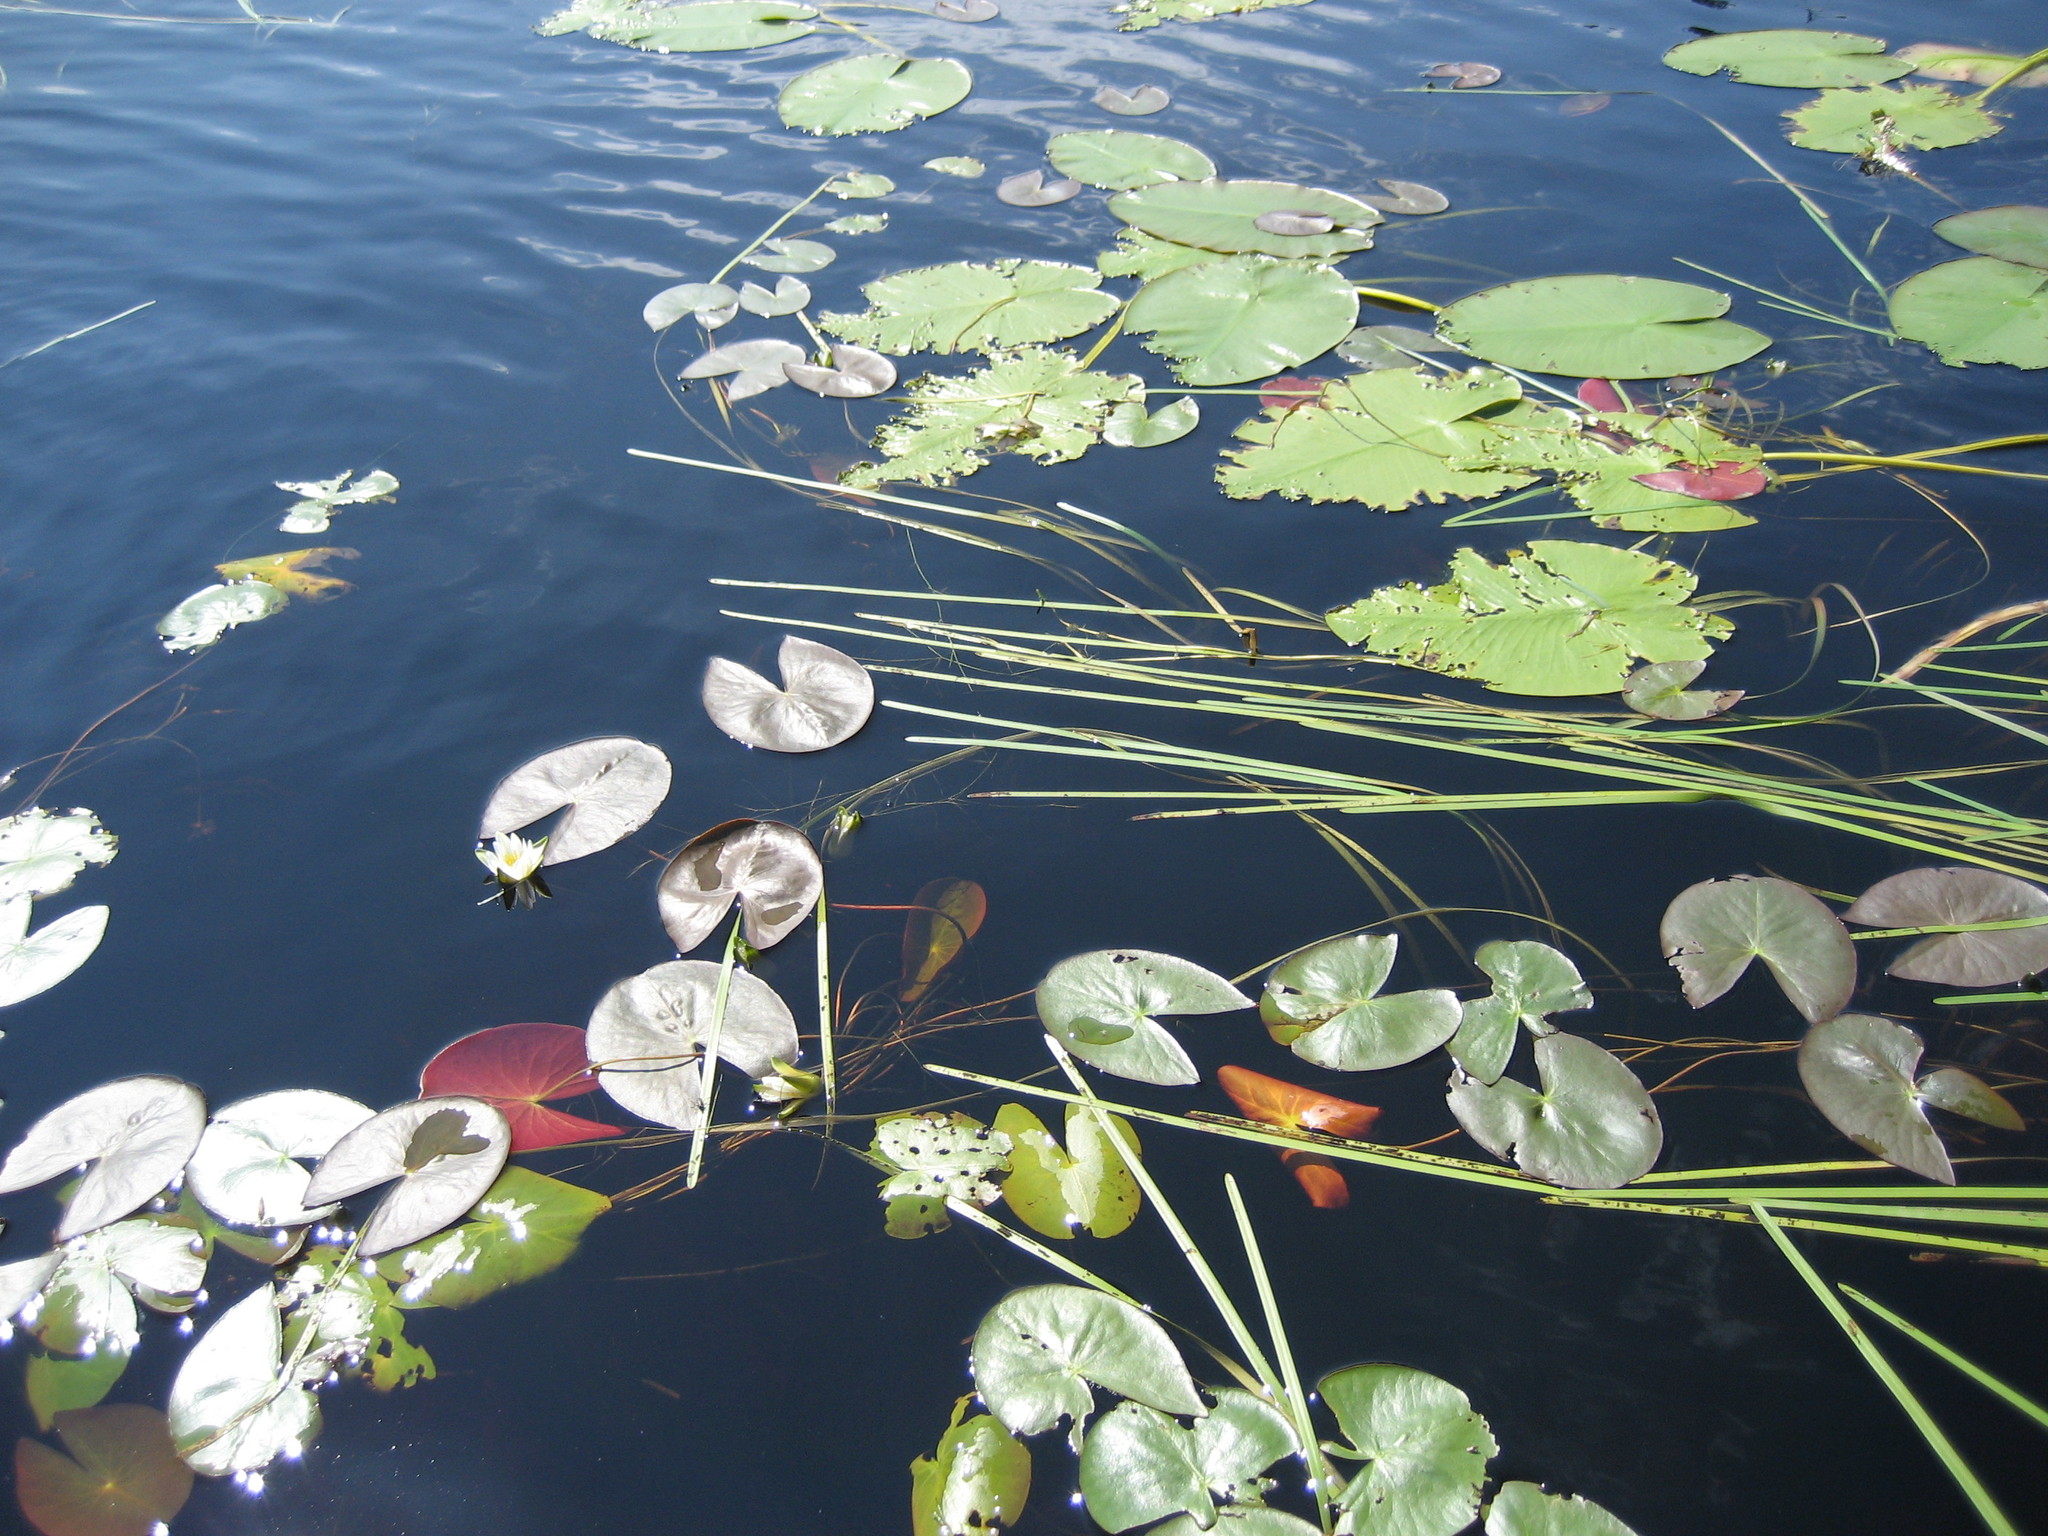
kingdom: Plantae
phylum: Tracheophyta
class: Magnoliopsida
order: Nymphaeales
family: Nymphaeaceae
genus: Nymphaea
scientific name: Nymphaea leibergii
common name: Dwarf water-lily
